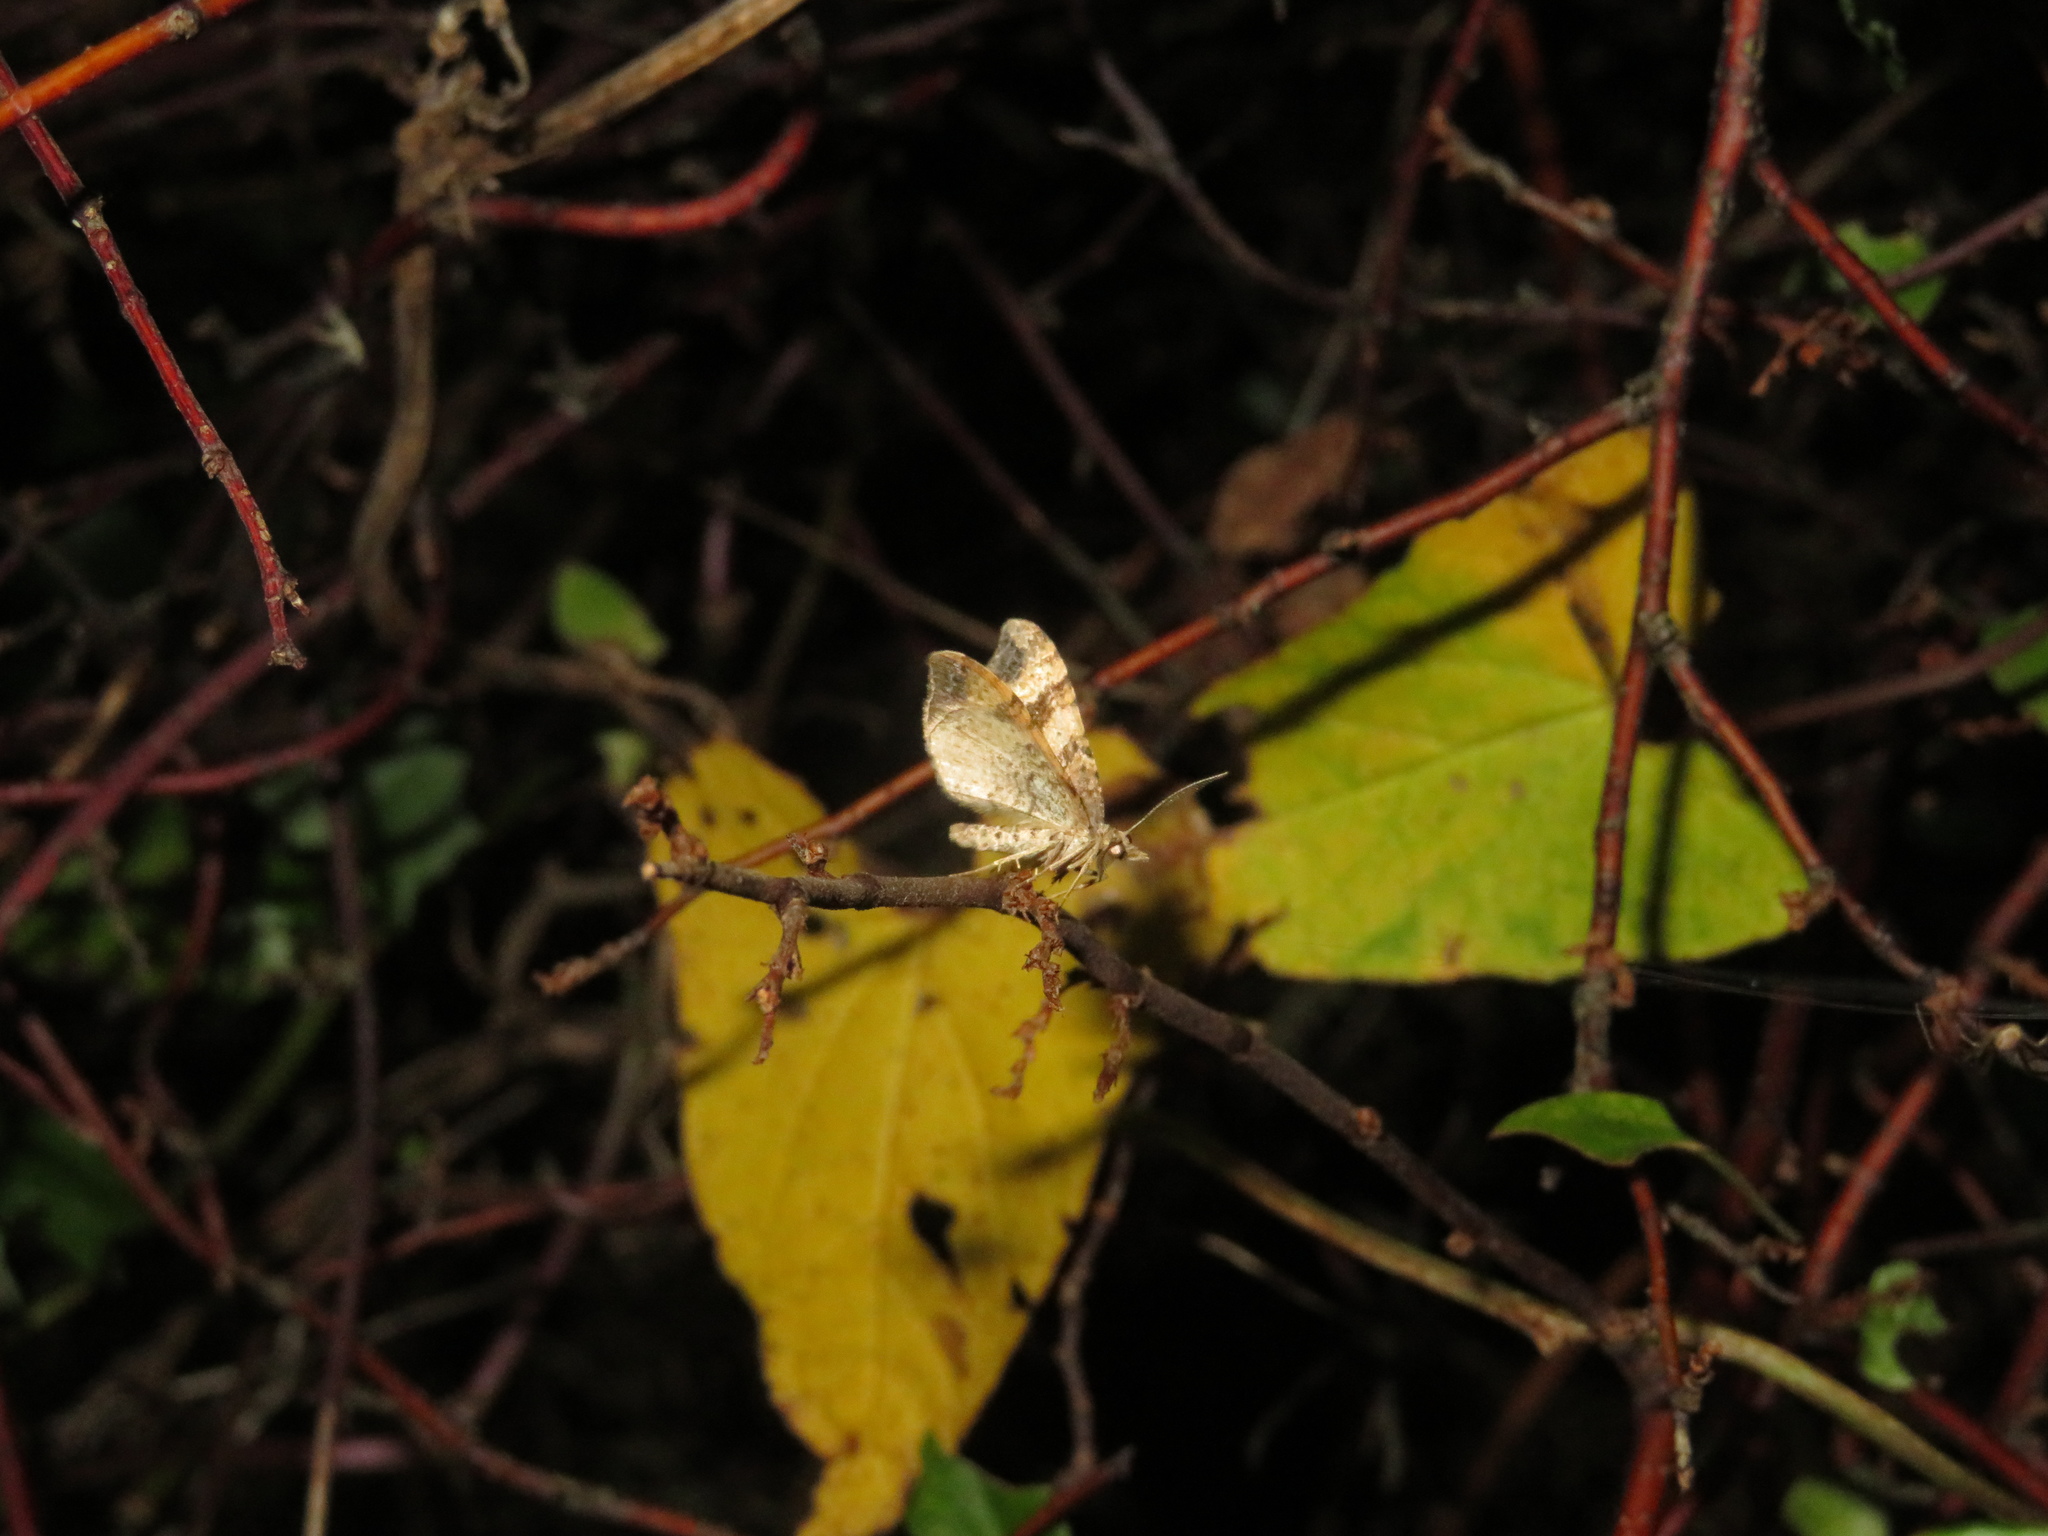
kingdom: Animalia
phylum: Arthropoda
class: Insecta
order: Lepidoptera
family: Geometridae
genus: Homodotis
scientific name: Homodotis megaspilata
